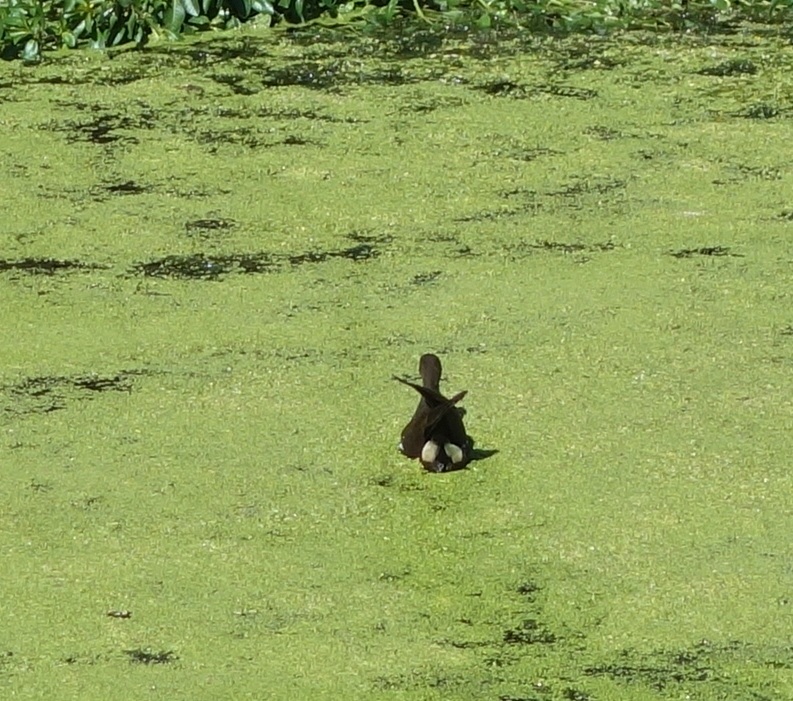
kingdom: Animalia
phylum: Chordata
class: Aves
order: Gruiformes
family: Rallidae
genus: Gallinula
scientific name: Gallinula chloropus
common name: Common moorhen
